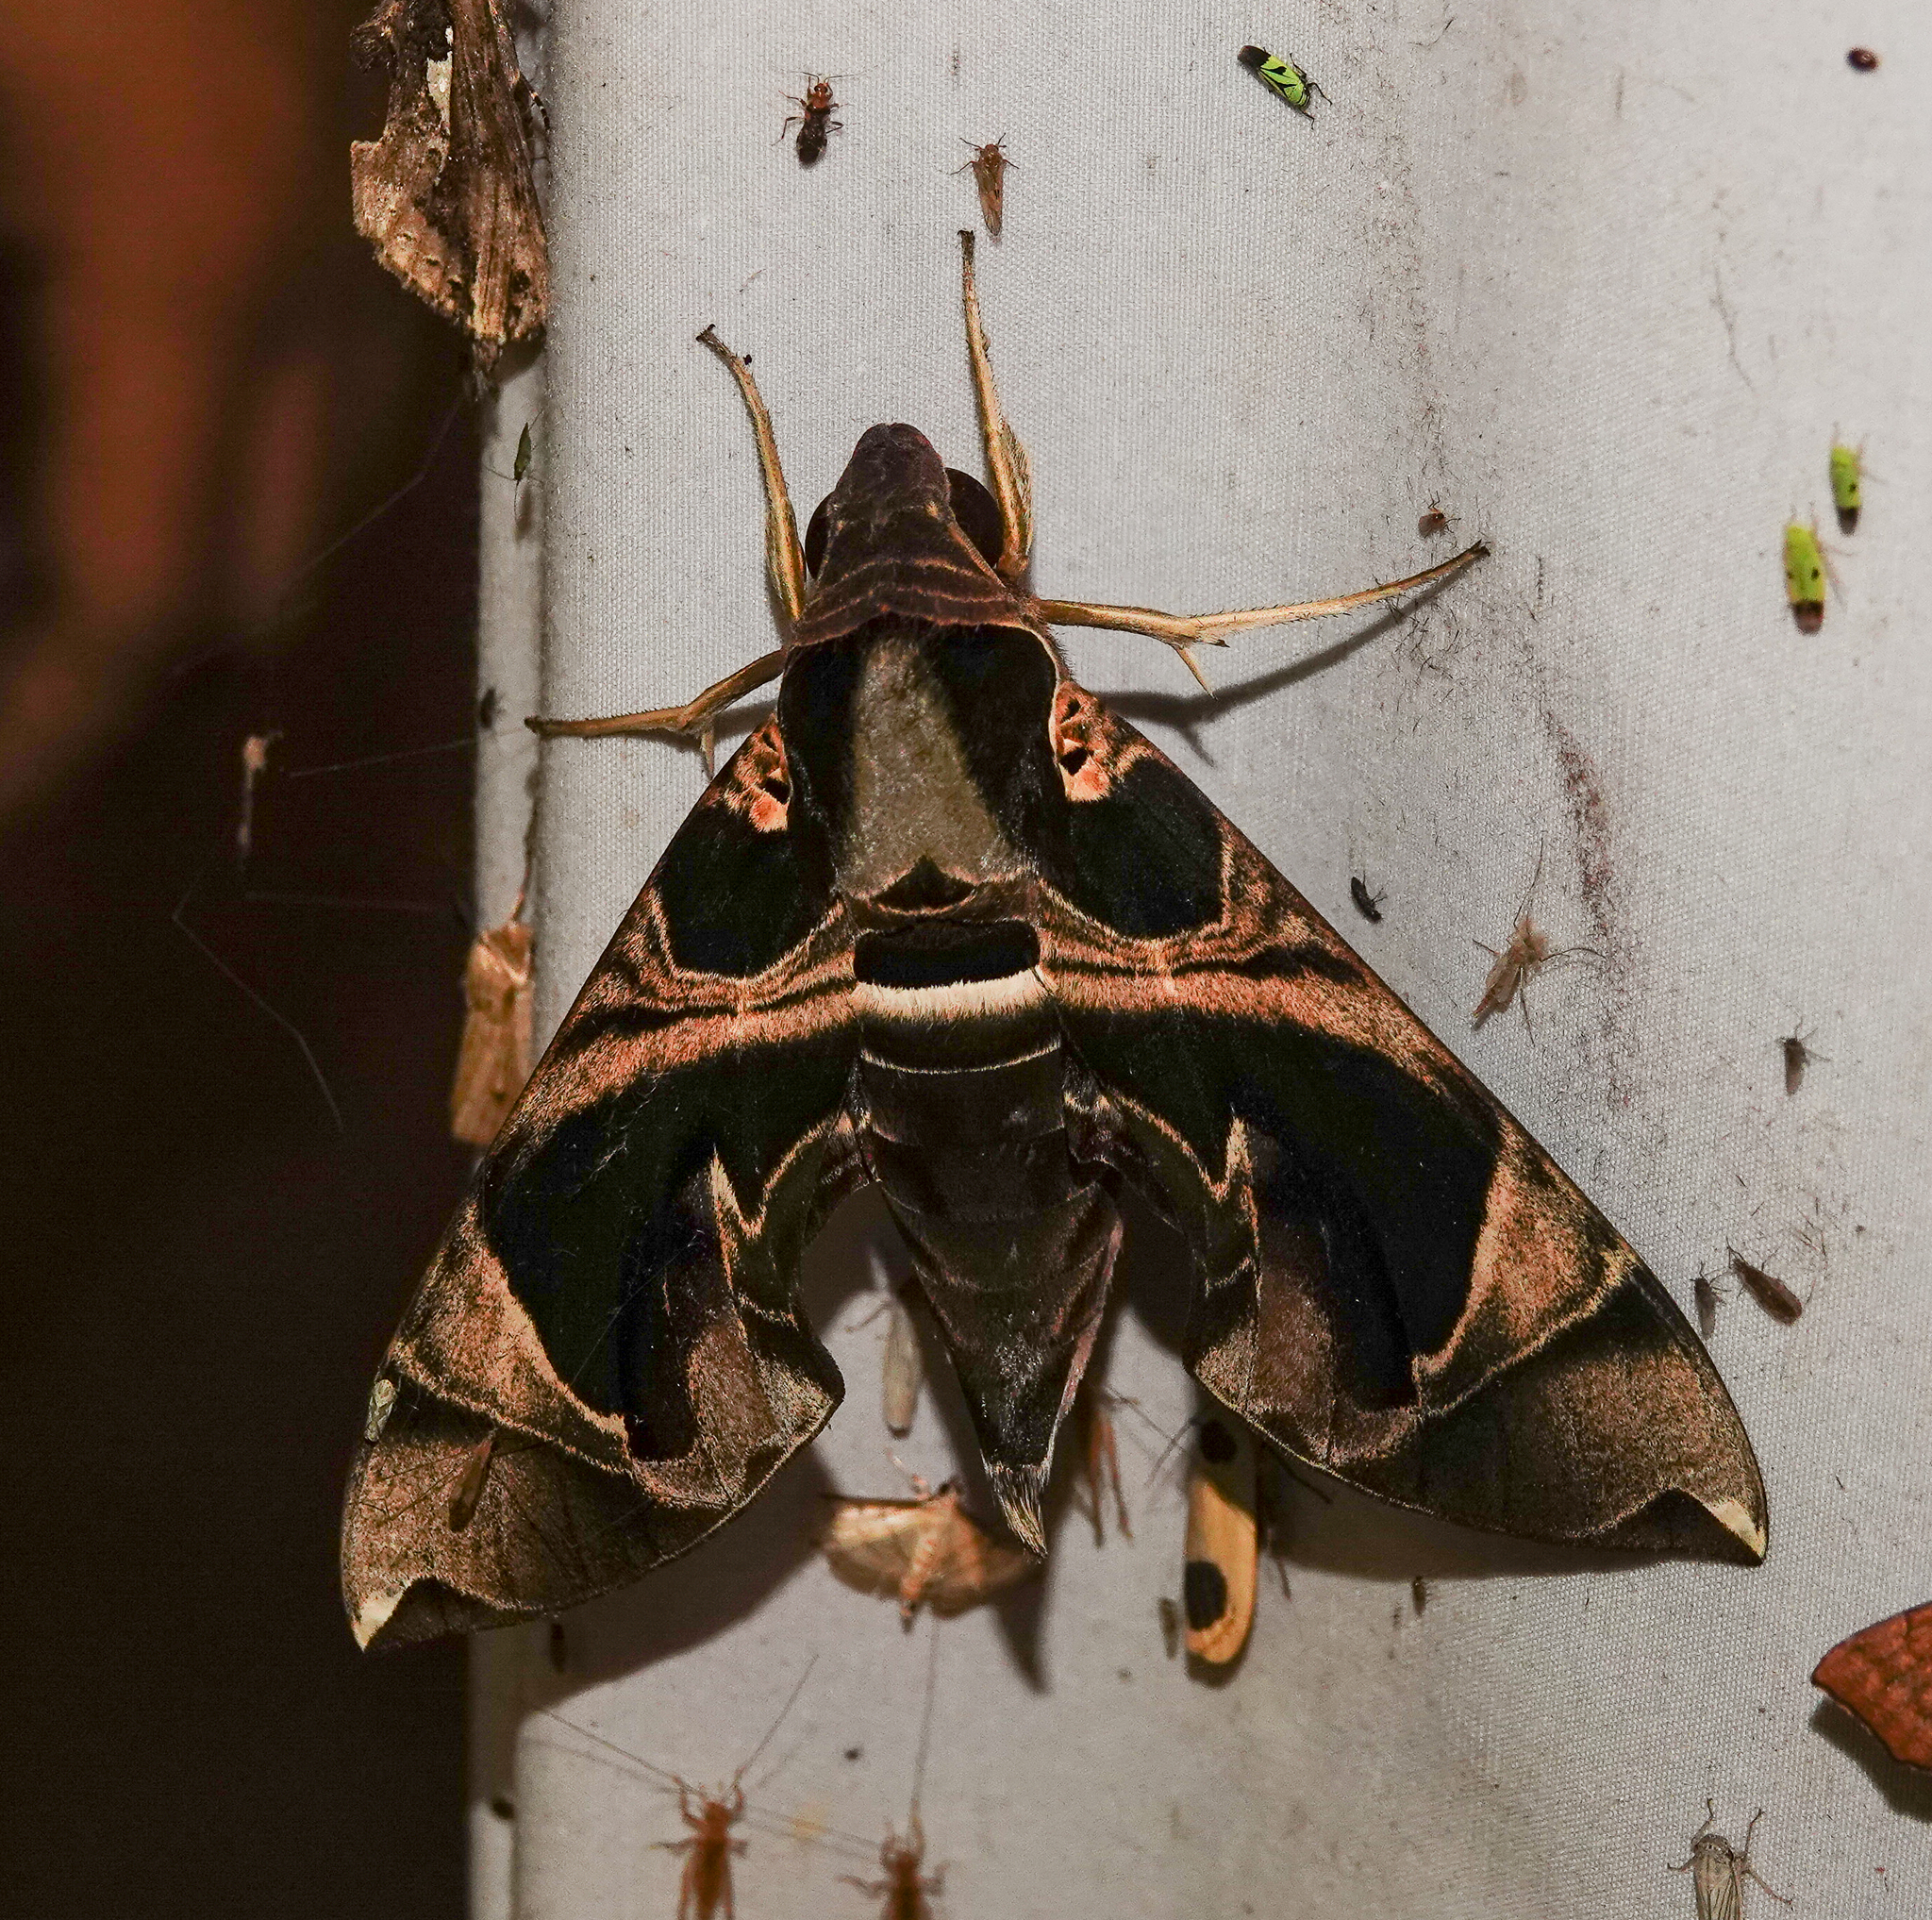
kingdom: Animalia
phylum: Arthropoda
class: Insecta
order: Lepidoptera
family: Sphingidae
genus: Daphnis
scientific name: Daphnis hypothous
